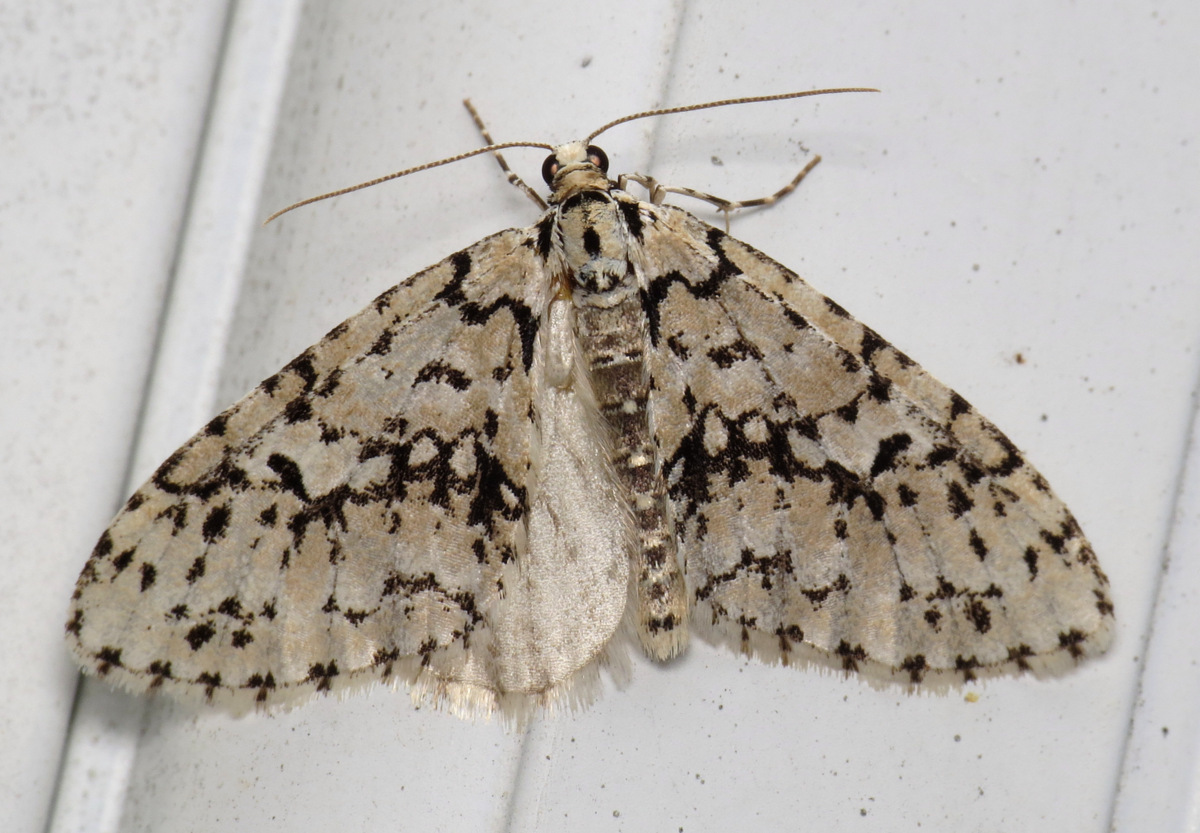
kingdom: Animalia
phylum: Arthropoda
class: Insecta
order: Lepidoptera
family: Geometridae
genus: Cladara
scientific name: Cladara atroliturata
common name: Scribbler
